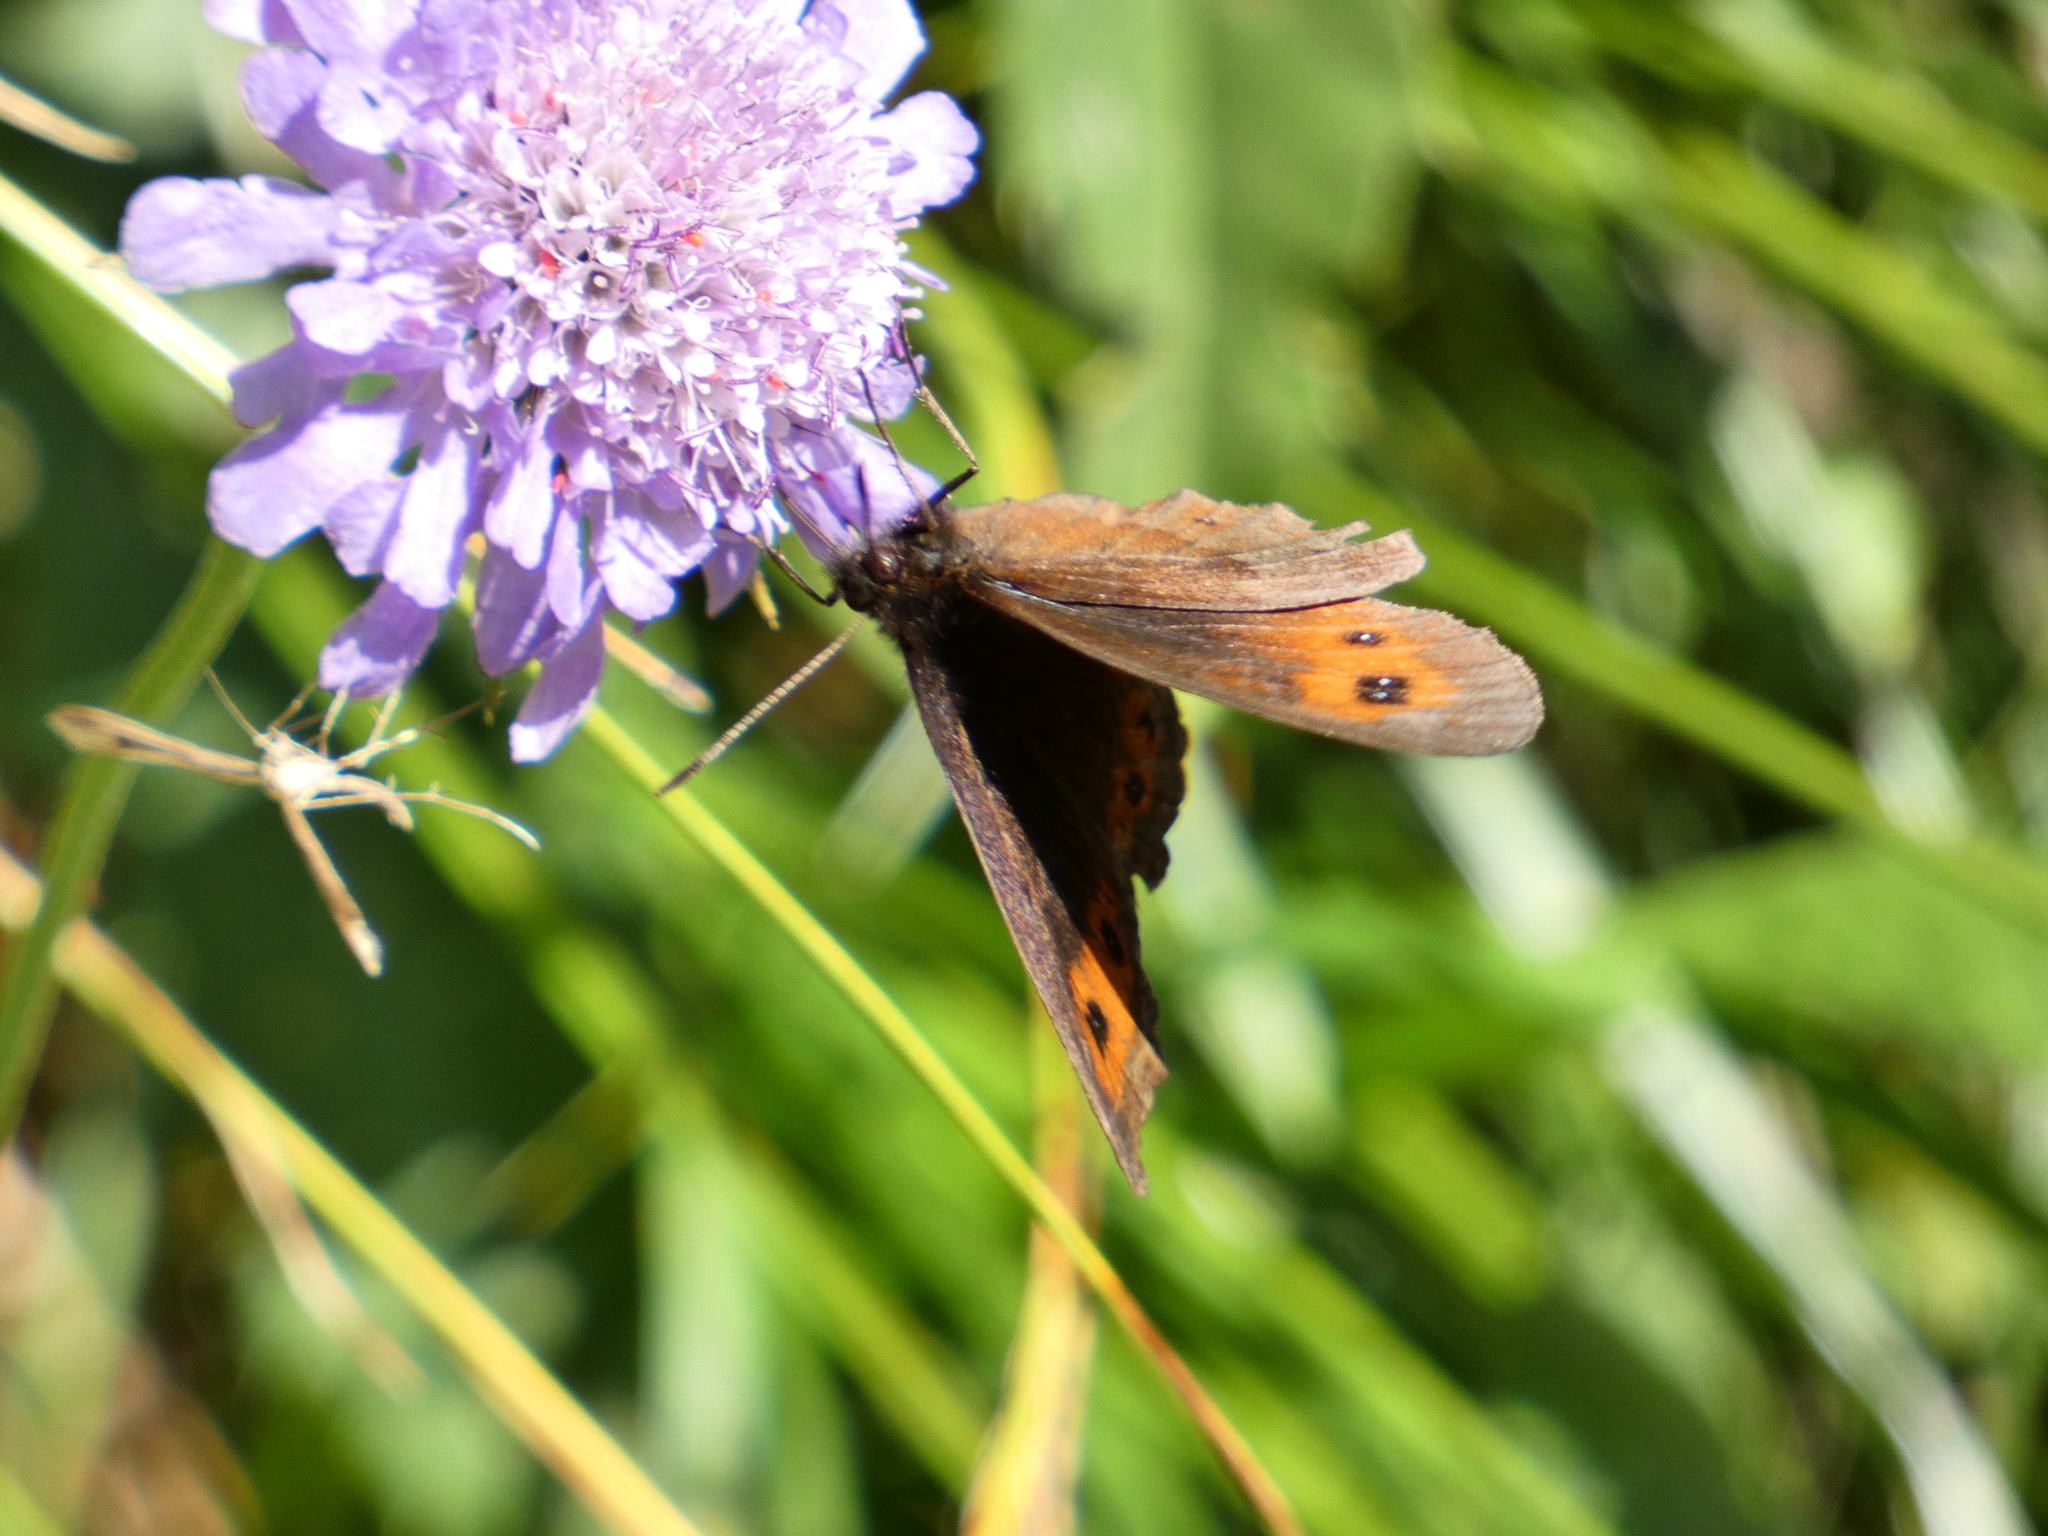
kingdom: Animalia
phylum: Arthropoda
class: Insecta
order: Lepidoptera
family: Nymphalidae
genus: Erebia
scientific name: Erebia aethiops
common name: Scotch argus
